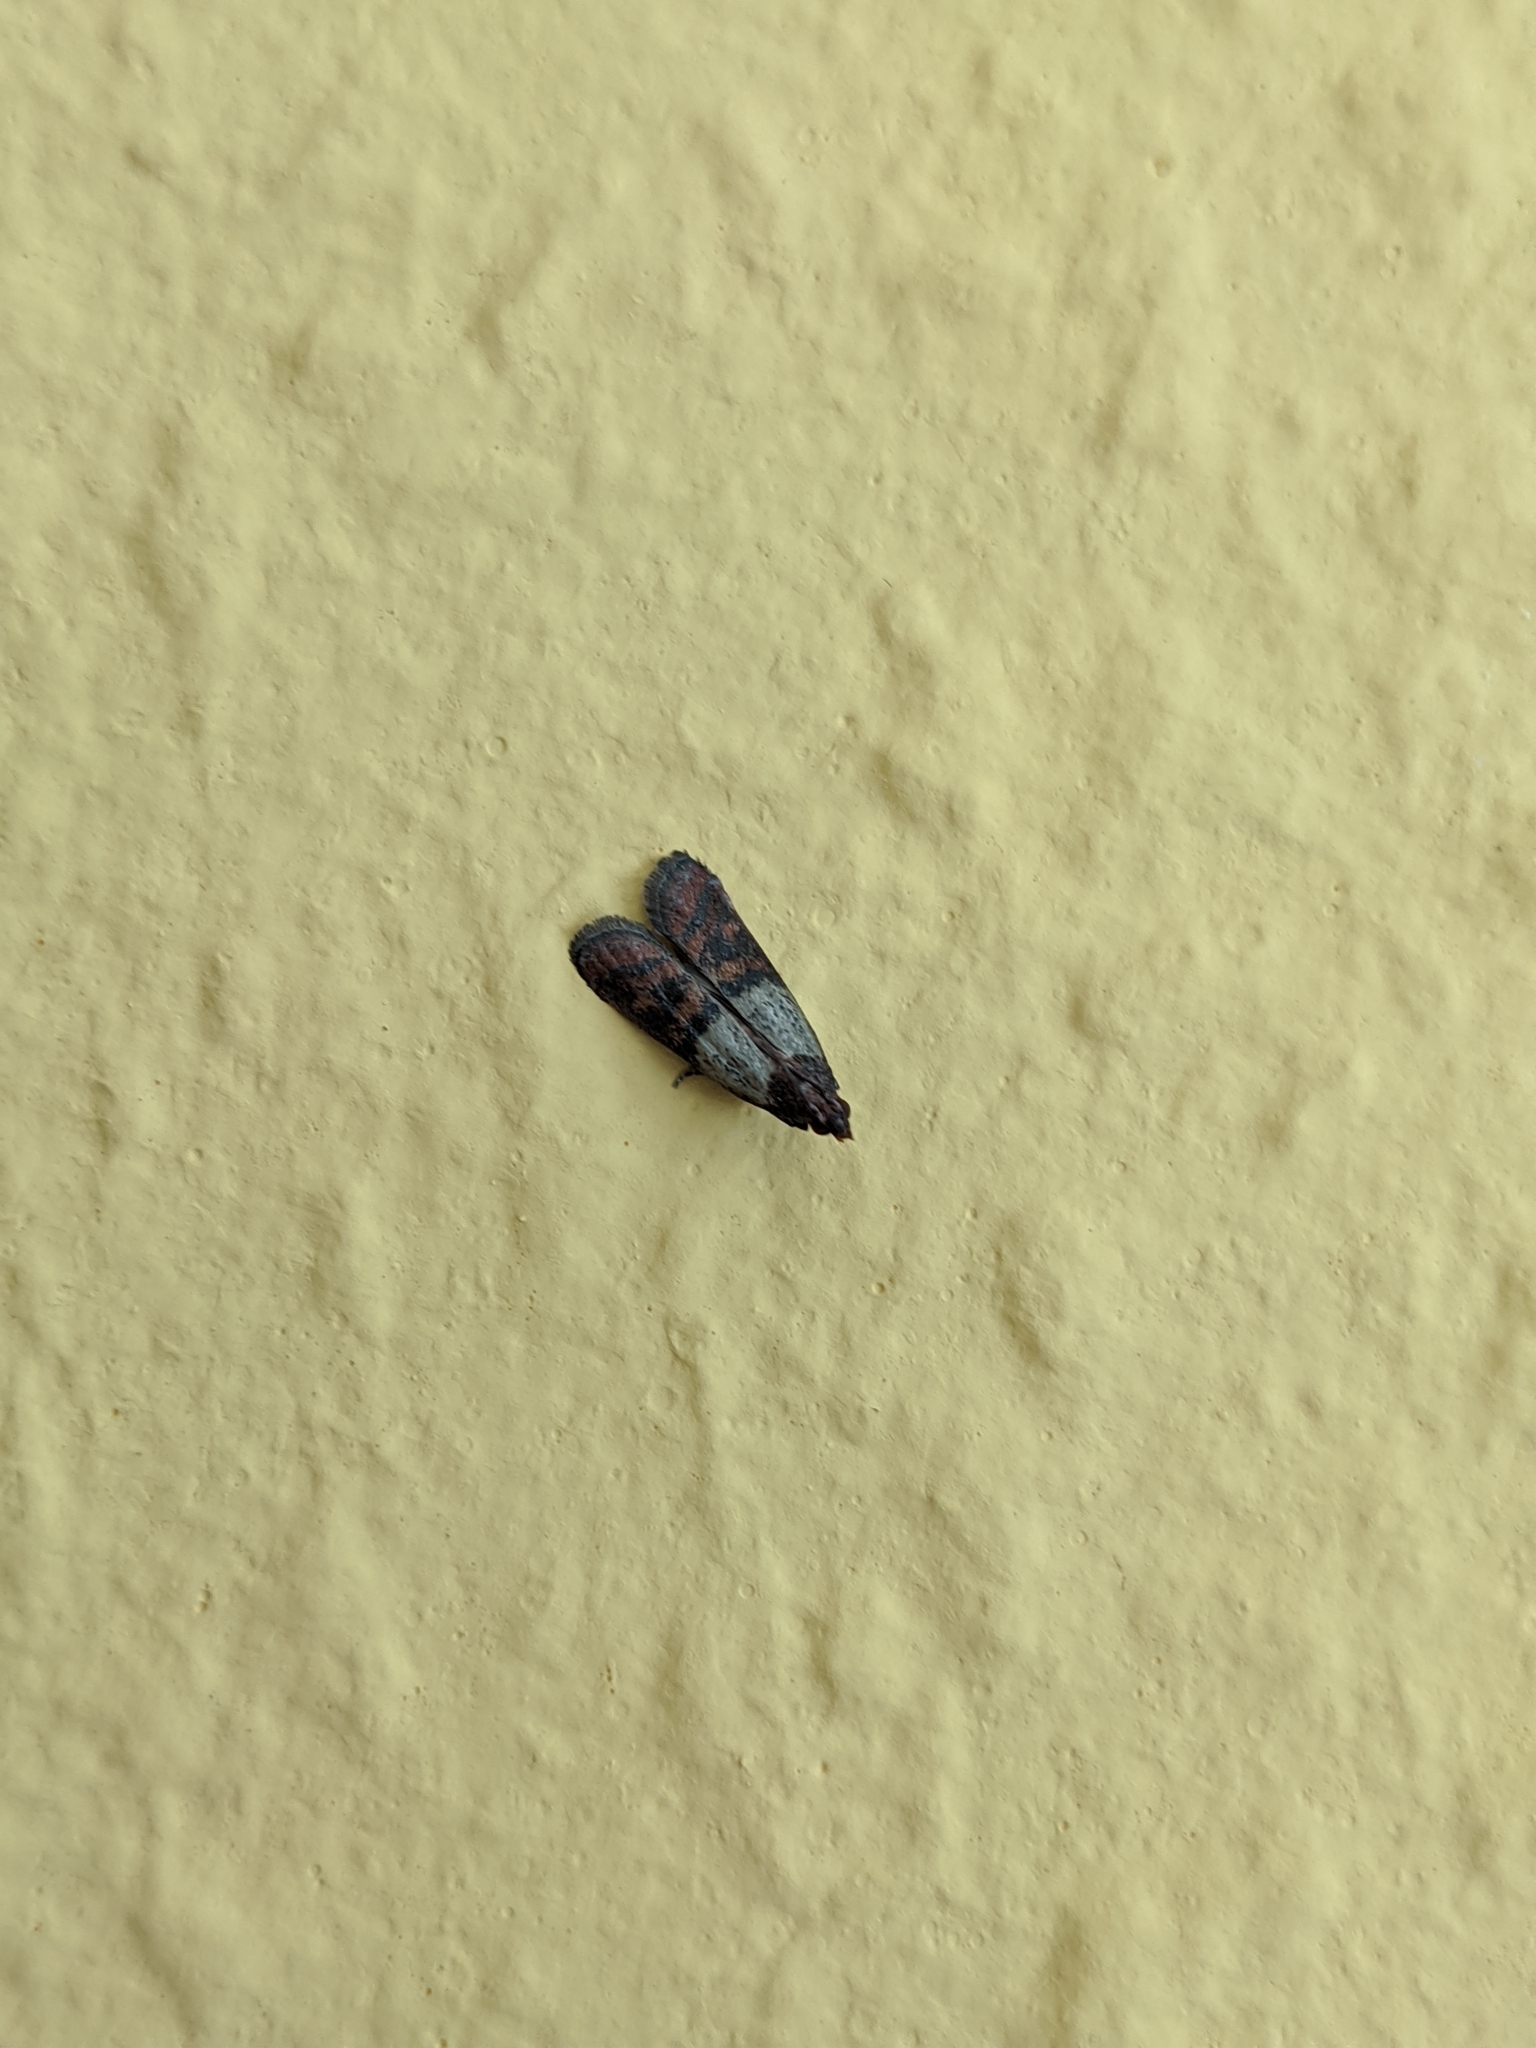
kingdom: Animalia
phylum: Arthropoda
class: Insecta
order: Lepidoptera
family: Pyralidae
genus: Plodia
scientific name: Plodia interpunctella
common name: Indian meal moth
